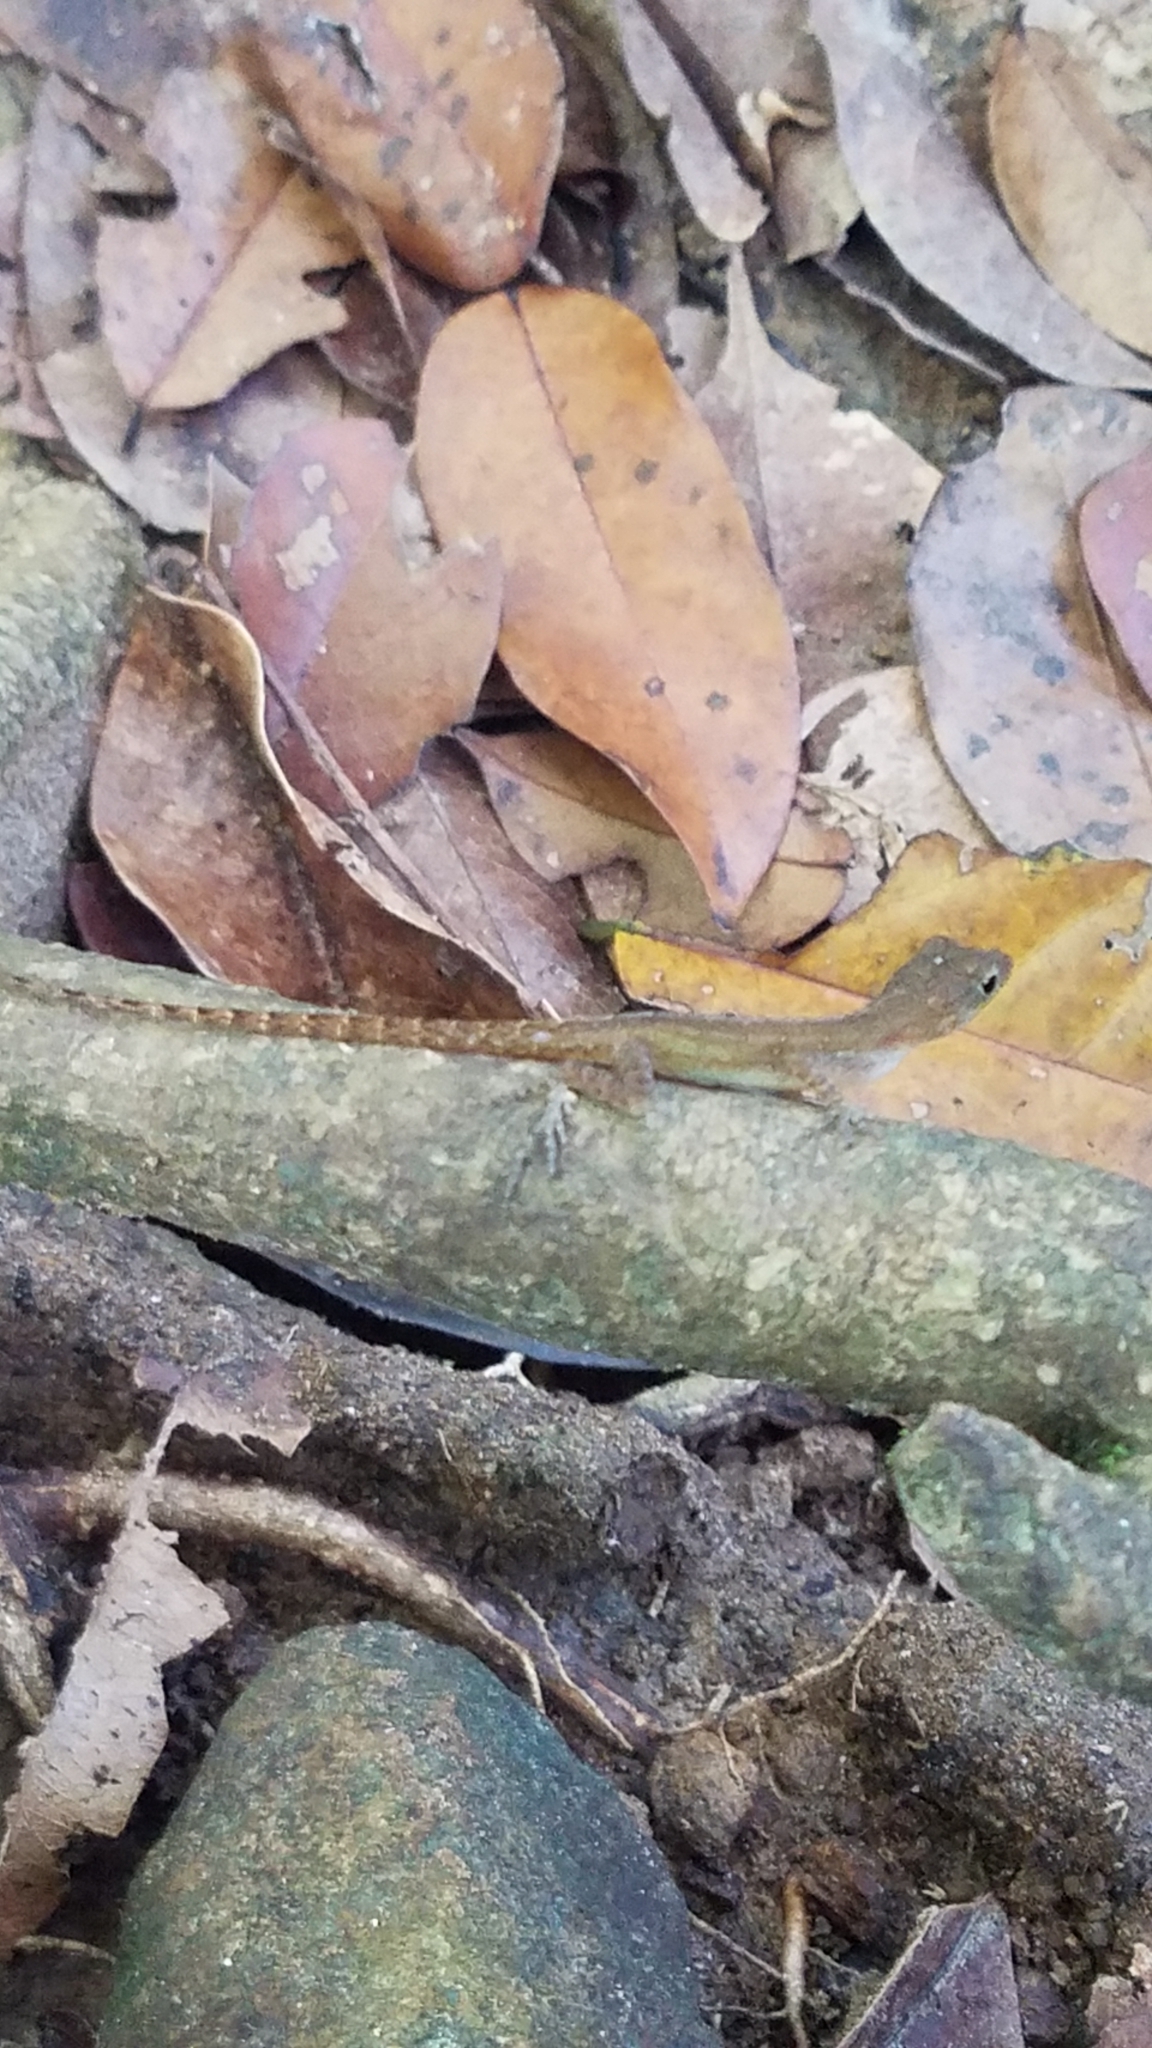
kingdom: Animalia
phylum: Chordata
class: Squamata
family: Dactyloidae
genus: Anolis
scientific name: Anolis oculatus
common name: Dominica anole
